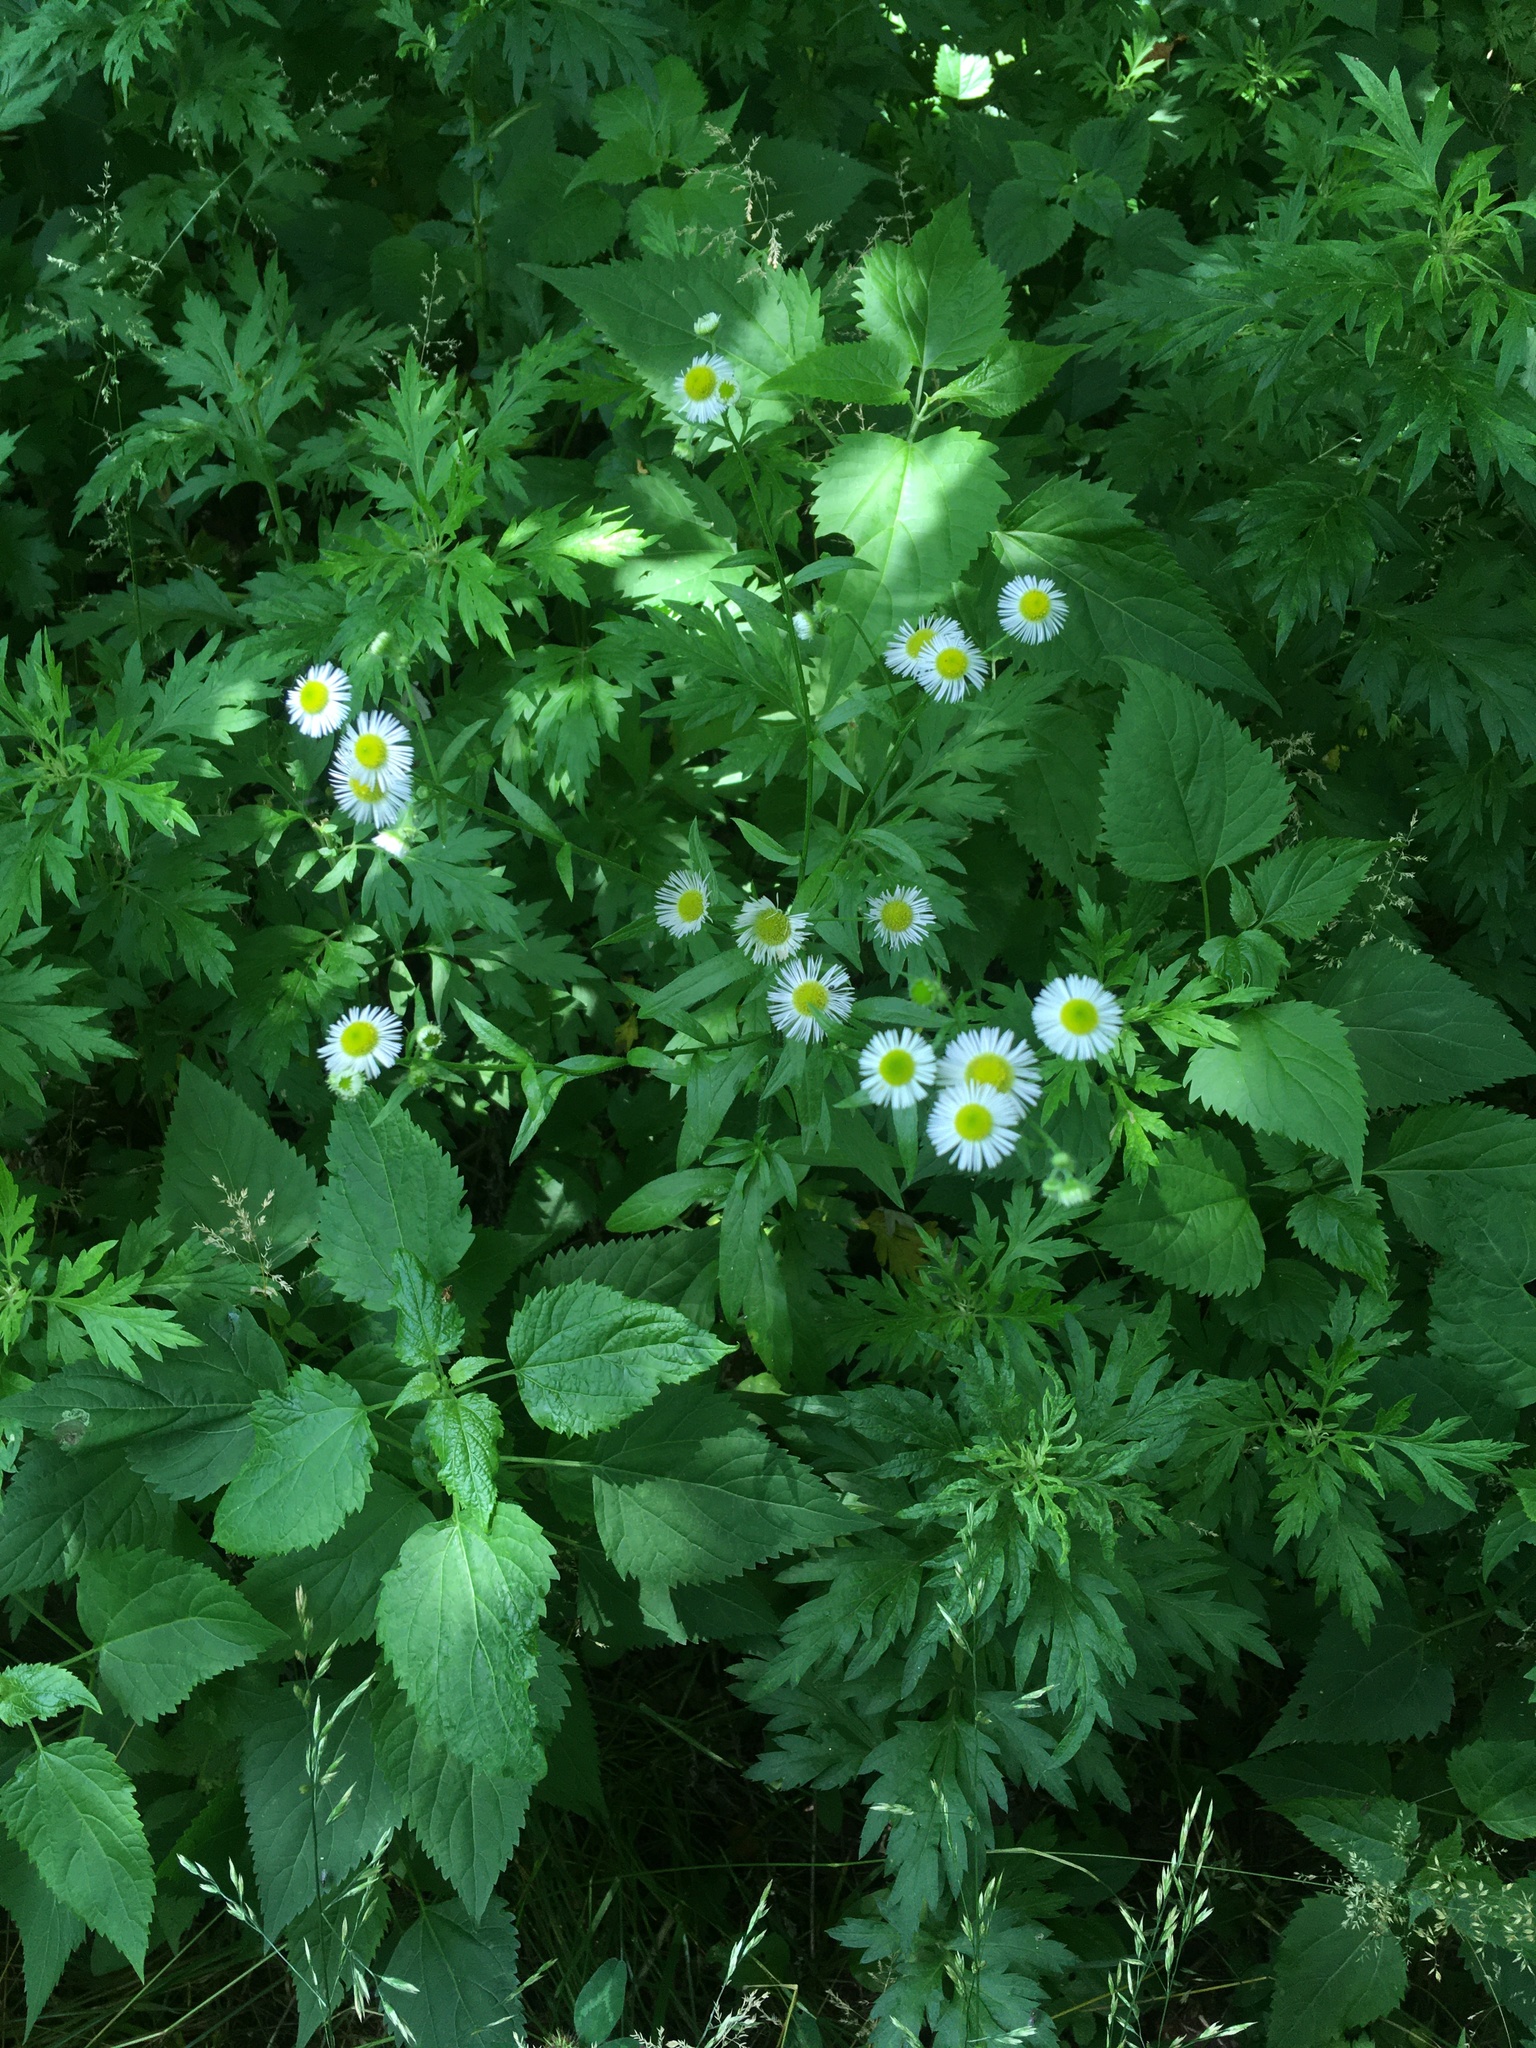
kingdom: Plantae
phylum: Tracheophyta
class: Magnoliopsida
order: Asterales
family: Asteraceae
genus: Erigeron
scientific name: Erigeron annuus
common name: Tall fleabane
